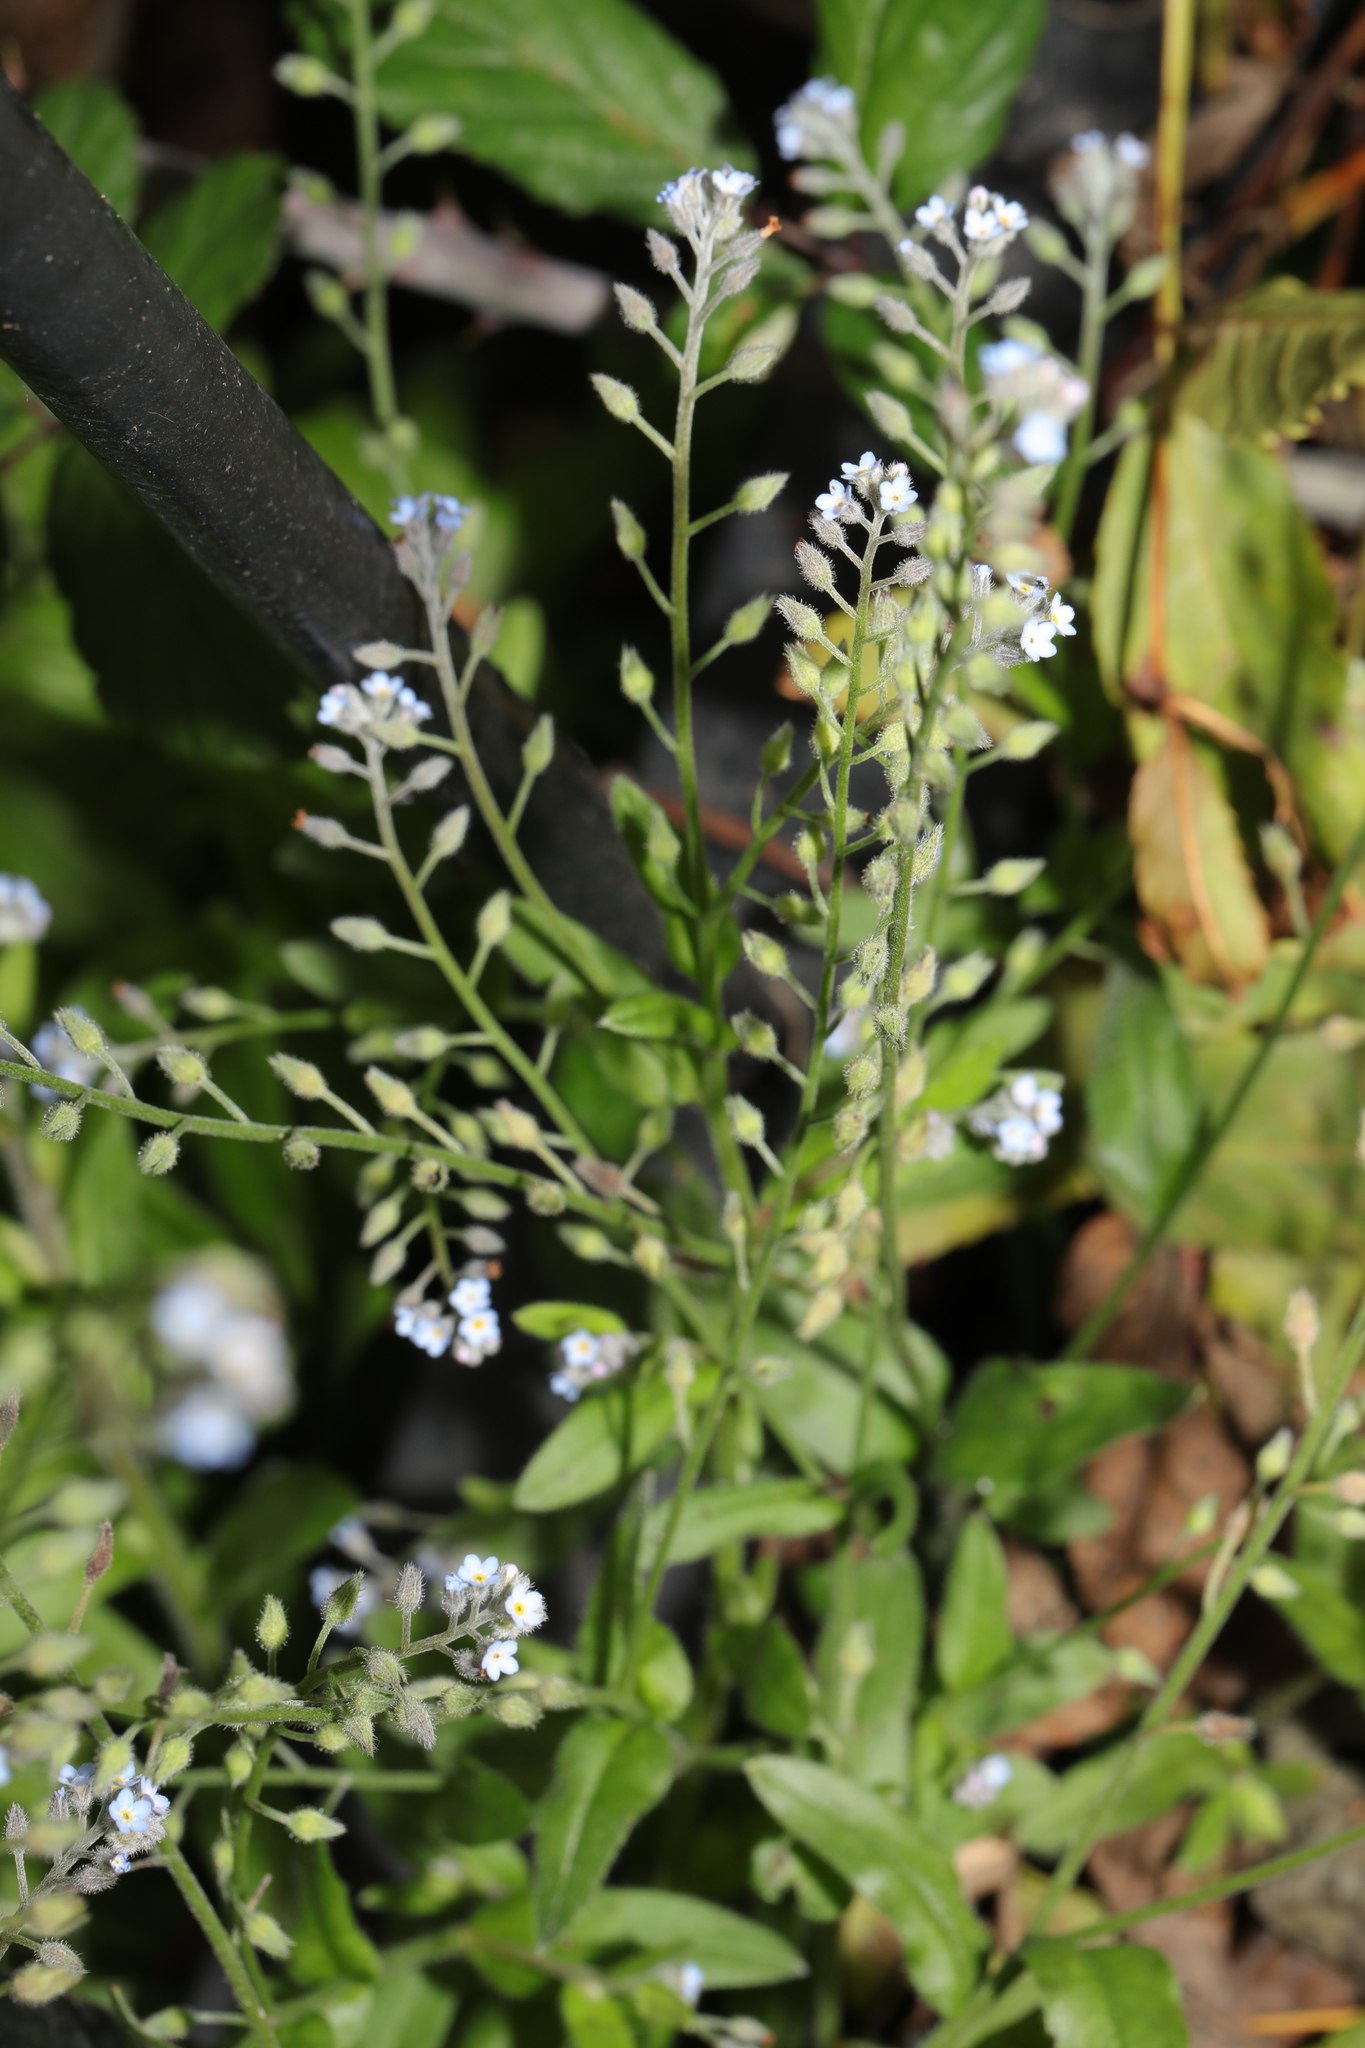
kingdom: Plantae
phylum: Tracheophyta
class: Magnoliopsida
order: Boraginales
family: Boraginaceae
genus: Myosotis
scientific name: Myosotis arvensis
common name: Field forget-me-not
